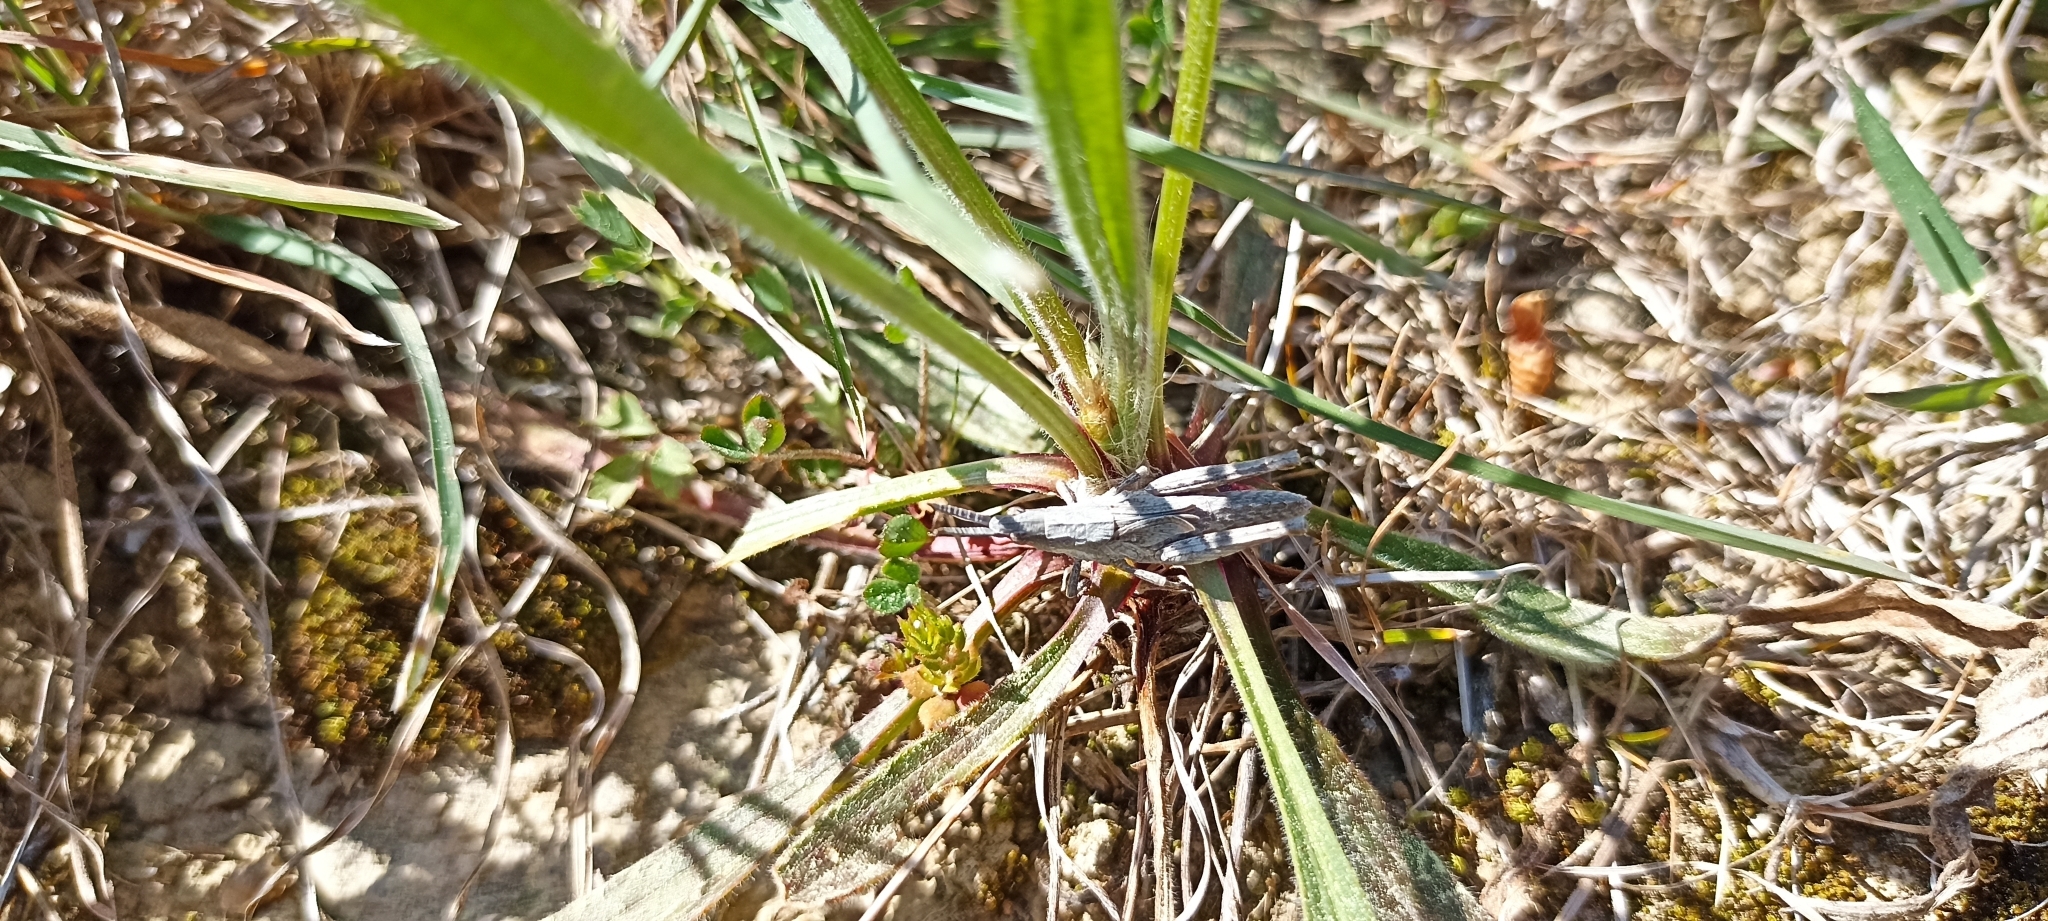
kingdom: Animalia
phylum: Arthropoda
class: Insecta
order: Orthoptera
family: Pyrgomorphidae
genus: Pyrgomorpha
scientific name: Pyrgomorpha conica
